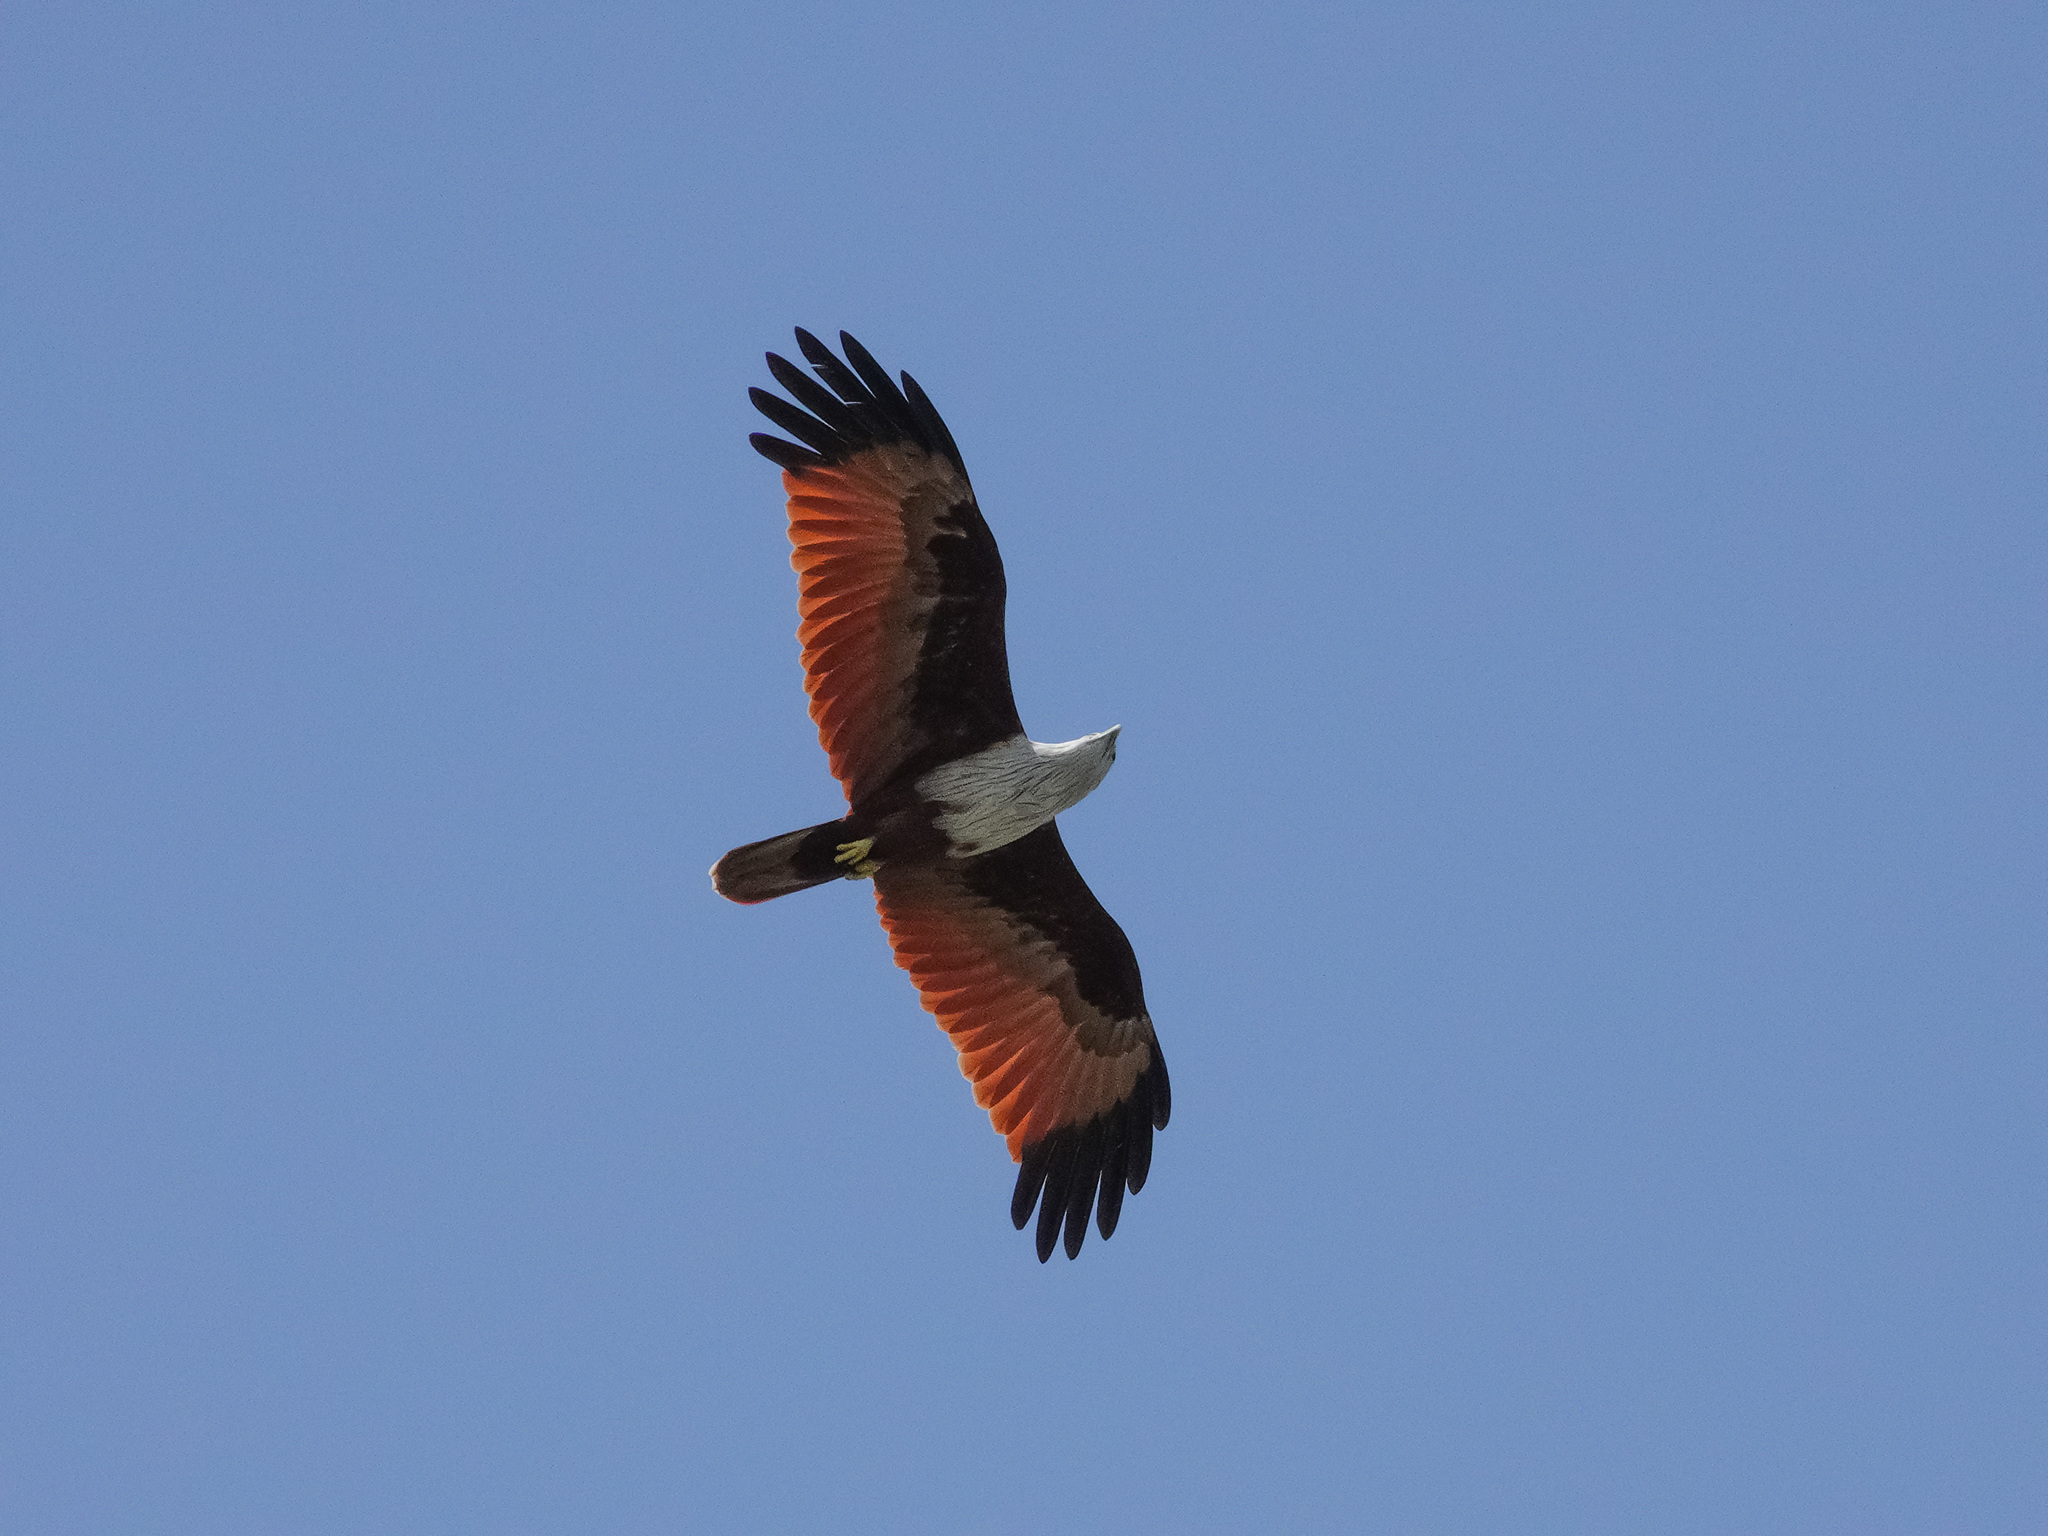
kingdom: Animalia
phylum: Chordata
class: Aves
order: Accipitriformes
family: Accipitridae
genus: Haliastur
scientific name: Haliastur indus
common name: Brahminy kite
